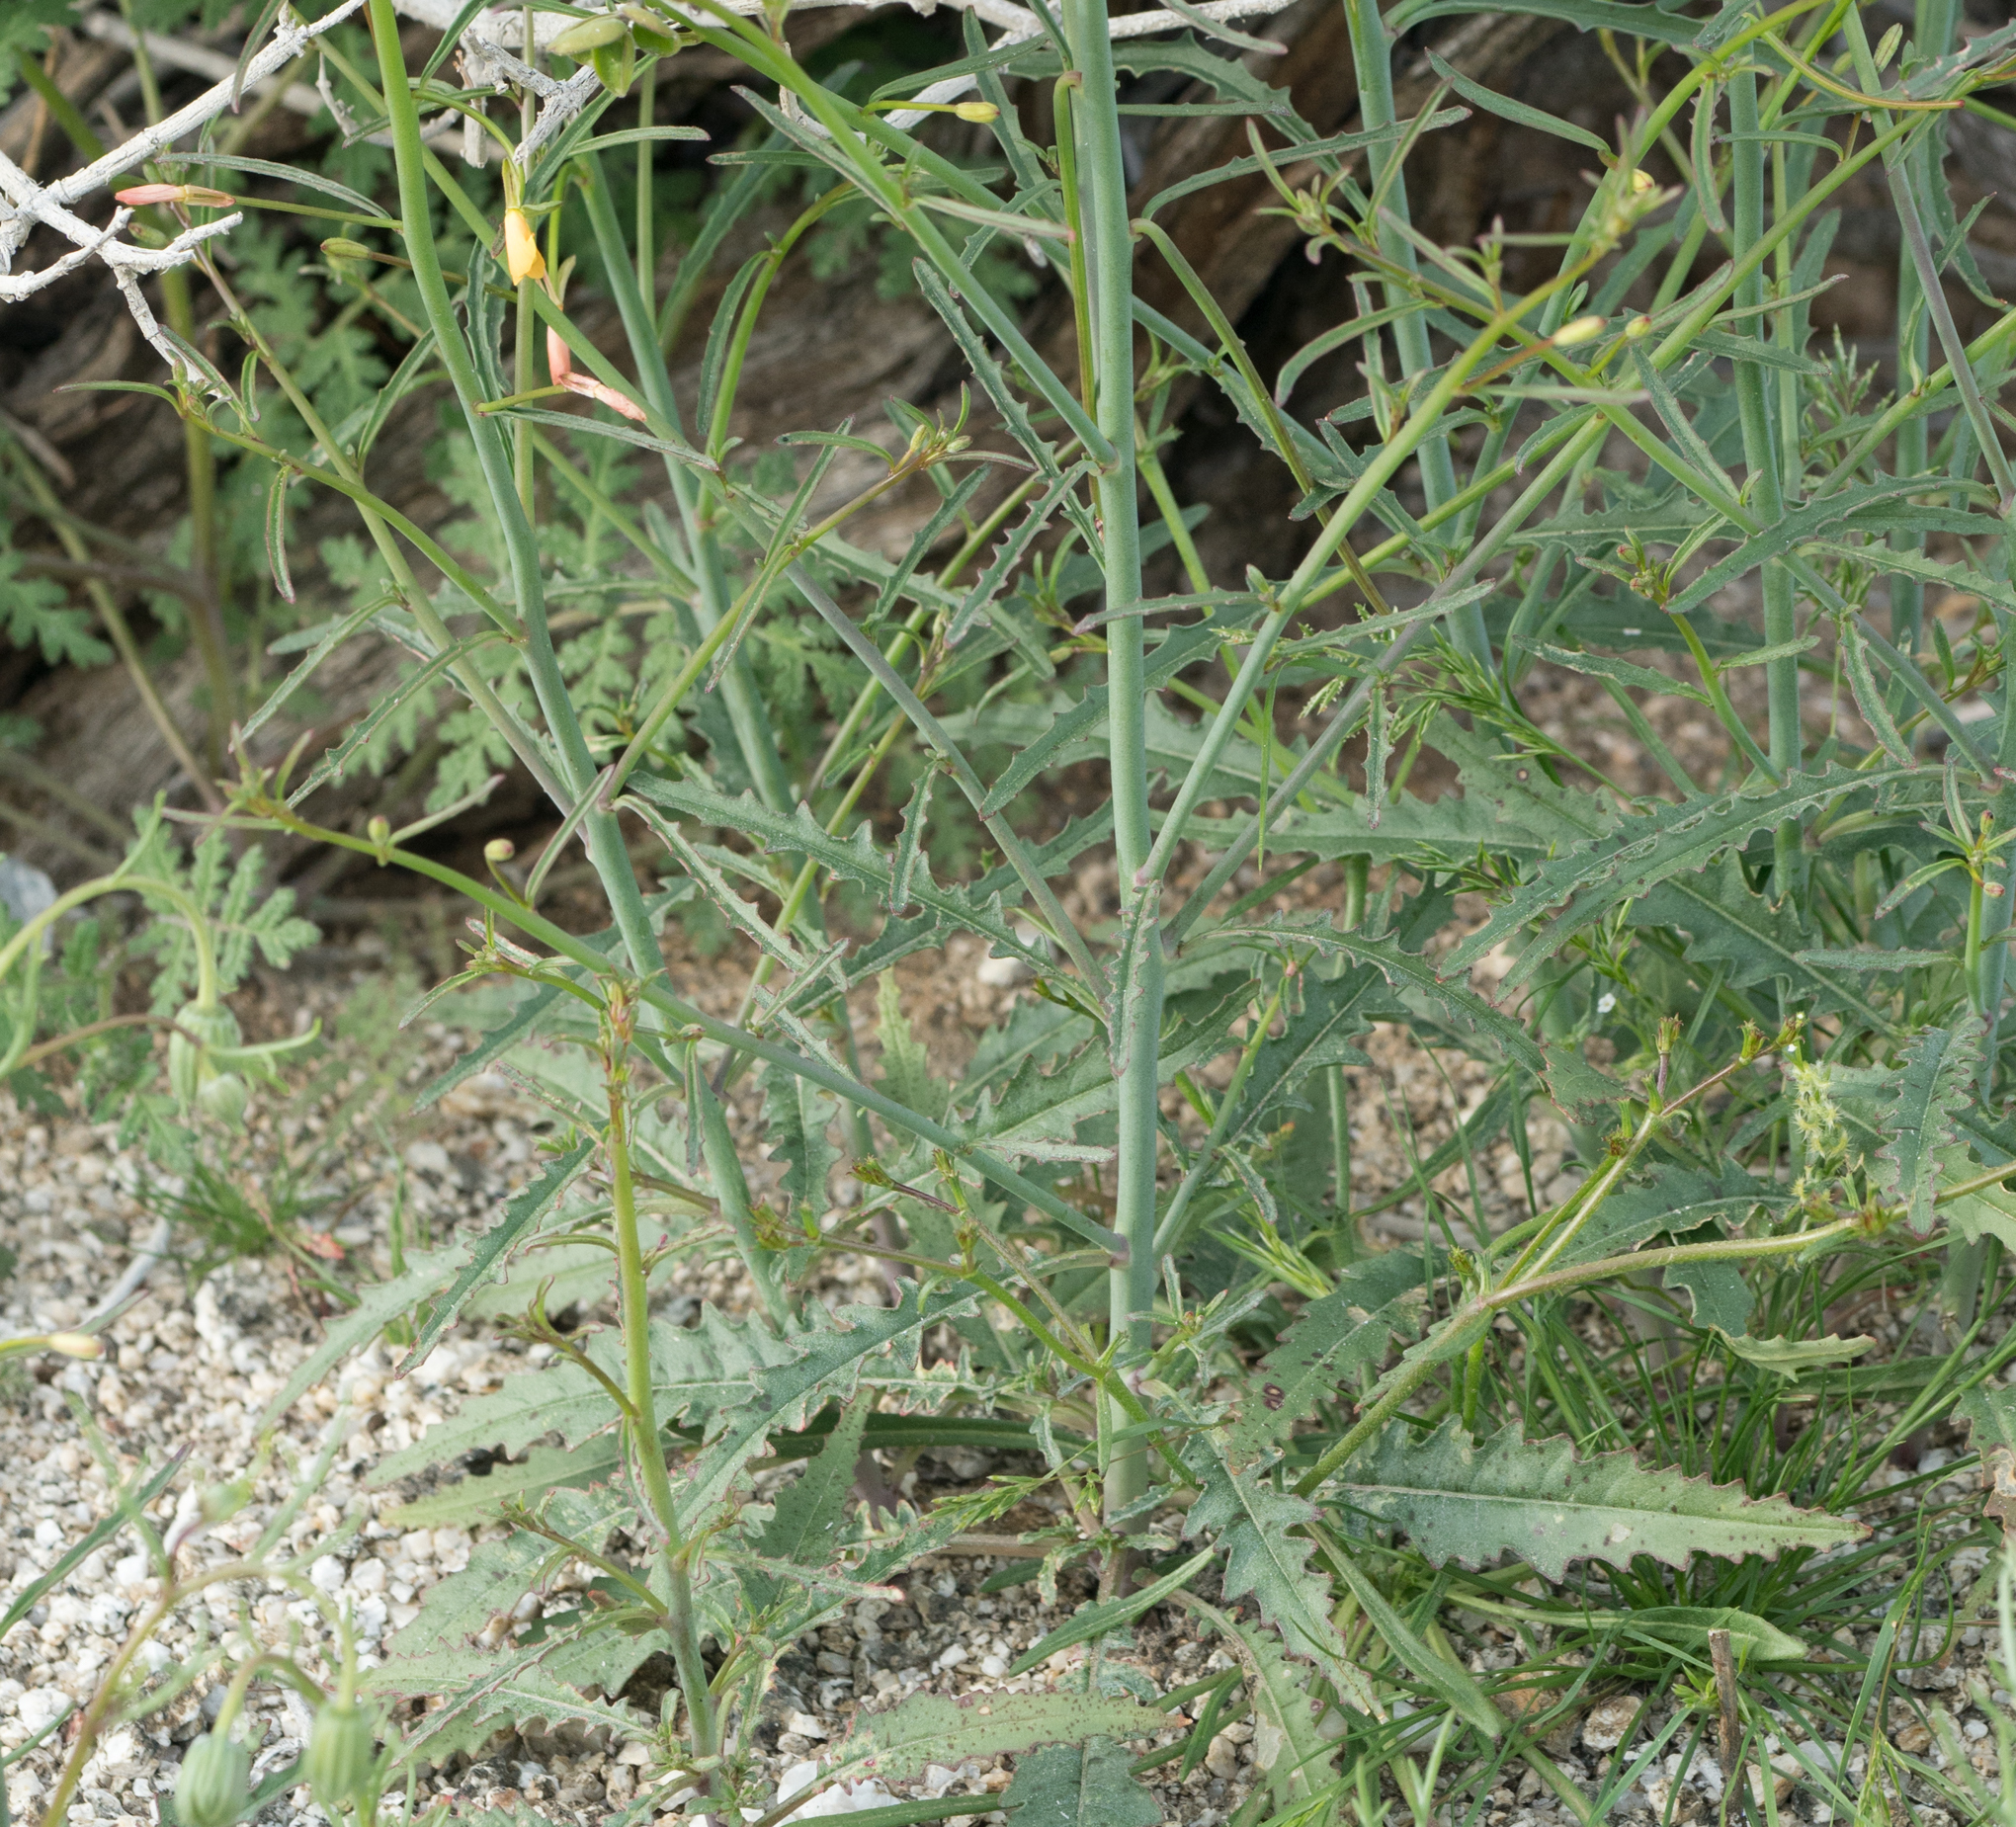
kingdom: Plantae
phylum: Tracheophyta
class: Magnoliopsida
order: Myrtales
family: Onagraceae
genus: Eulobus
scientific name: Eulobus californicus
